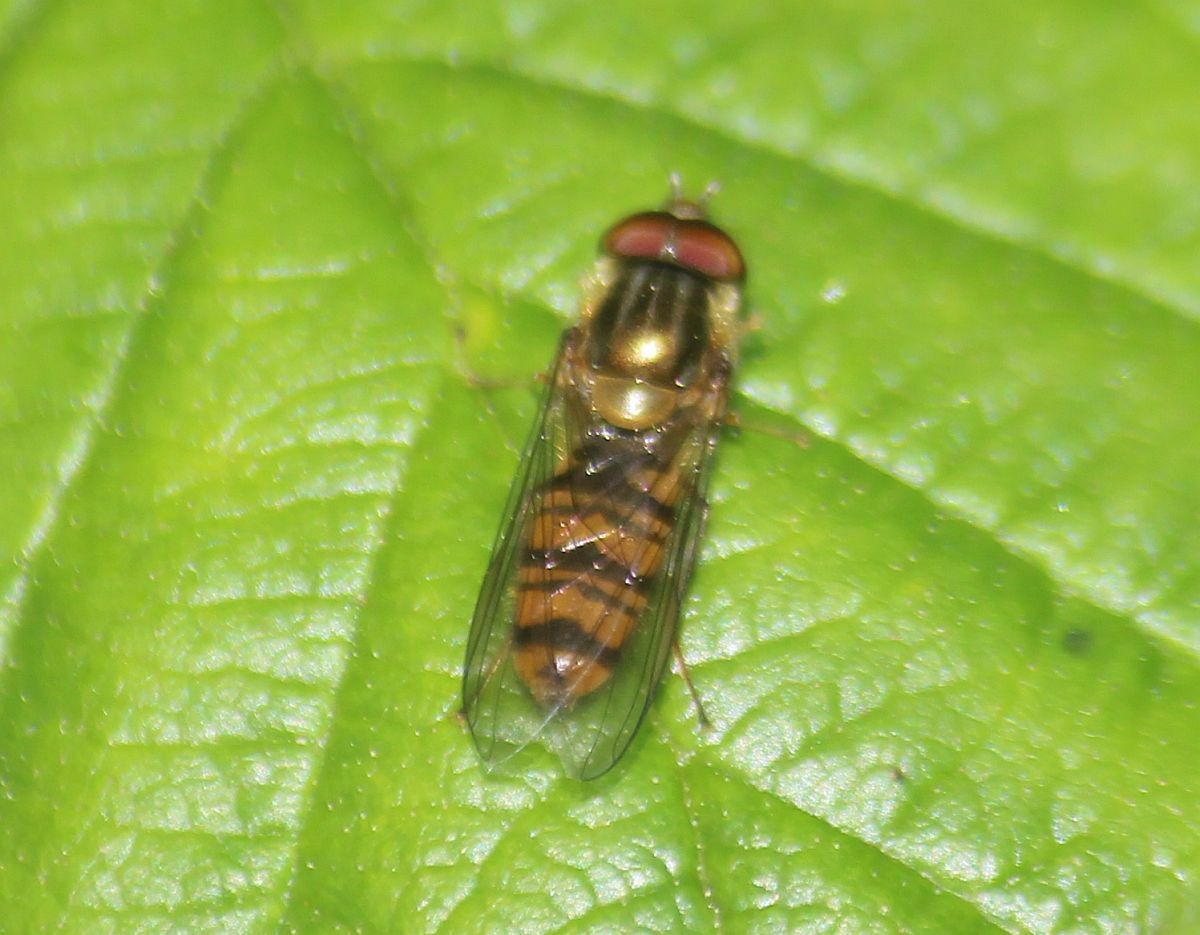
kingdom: Animalia
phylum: Arthropoda
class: Insecta
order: Diptera
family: Syrphidae
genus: Episyrphus
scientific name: Episyrphus balteatus
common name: Marmalade hoverfly
